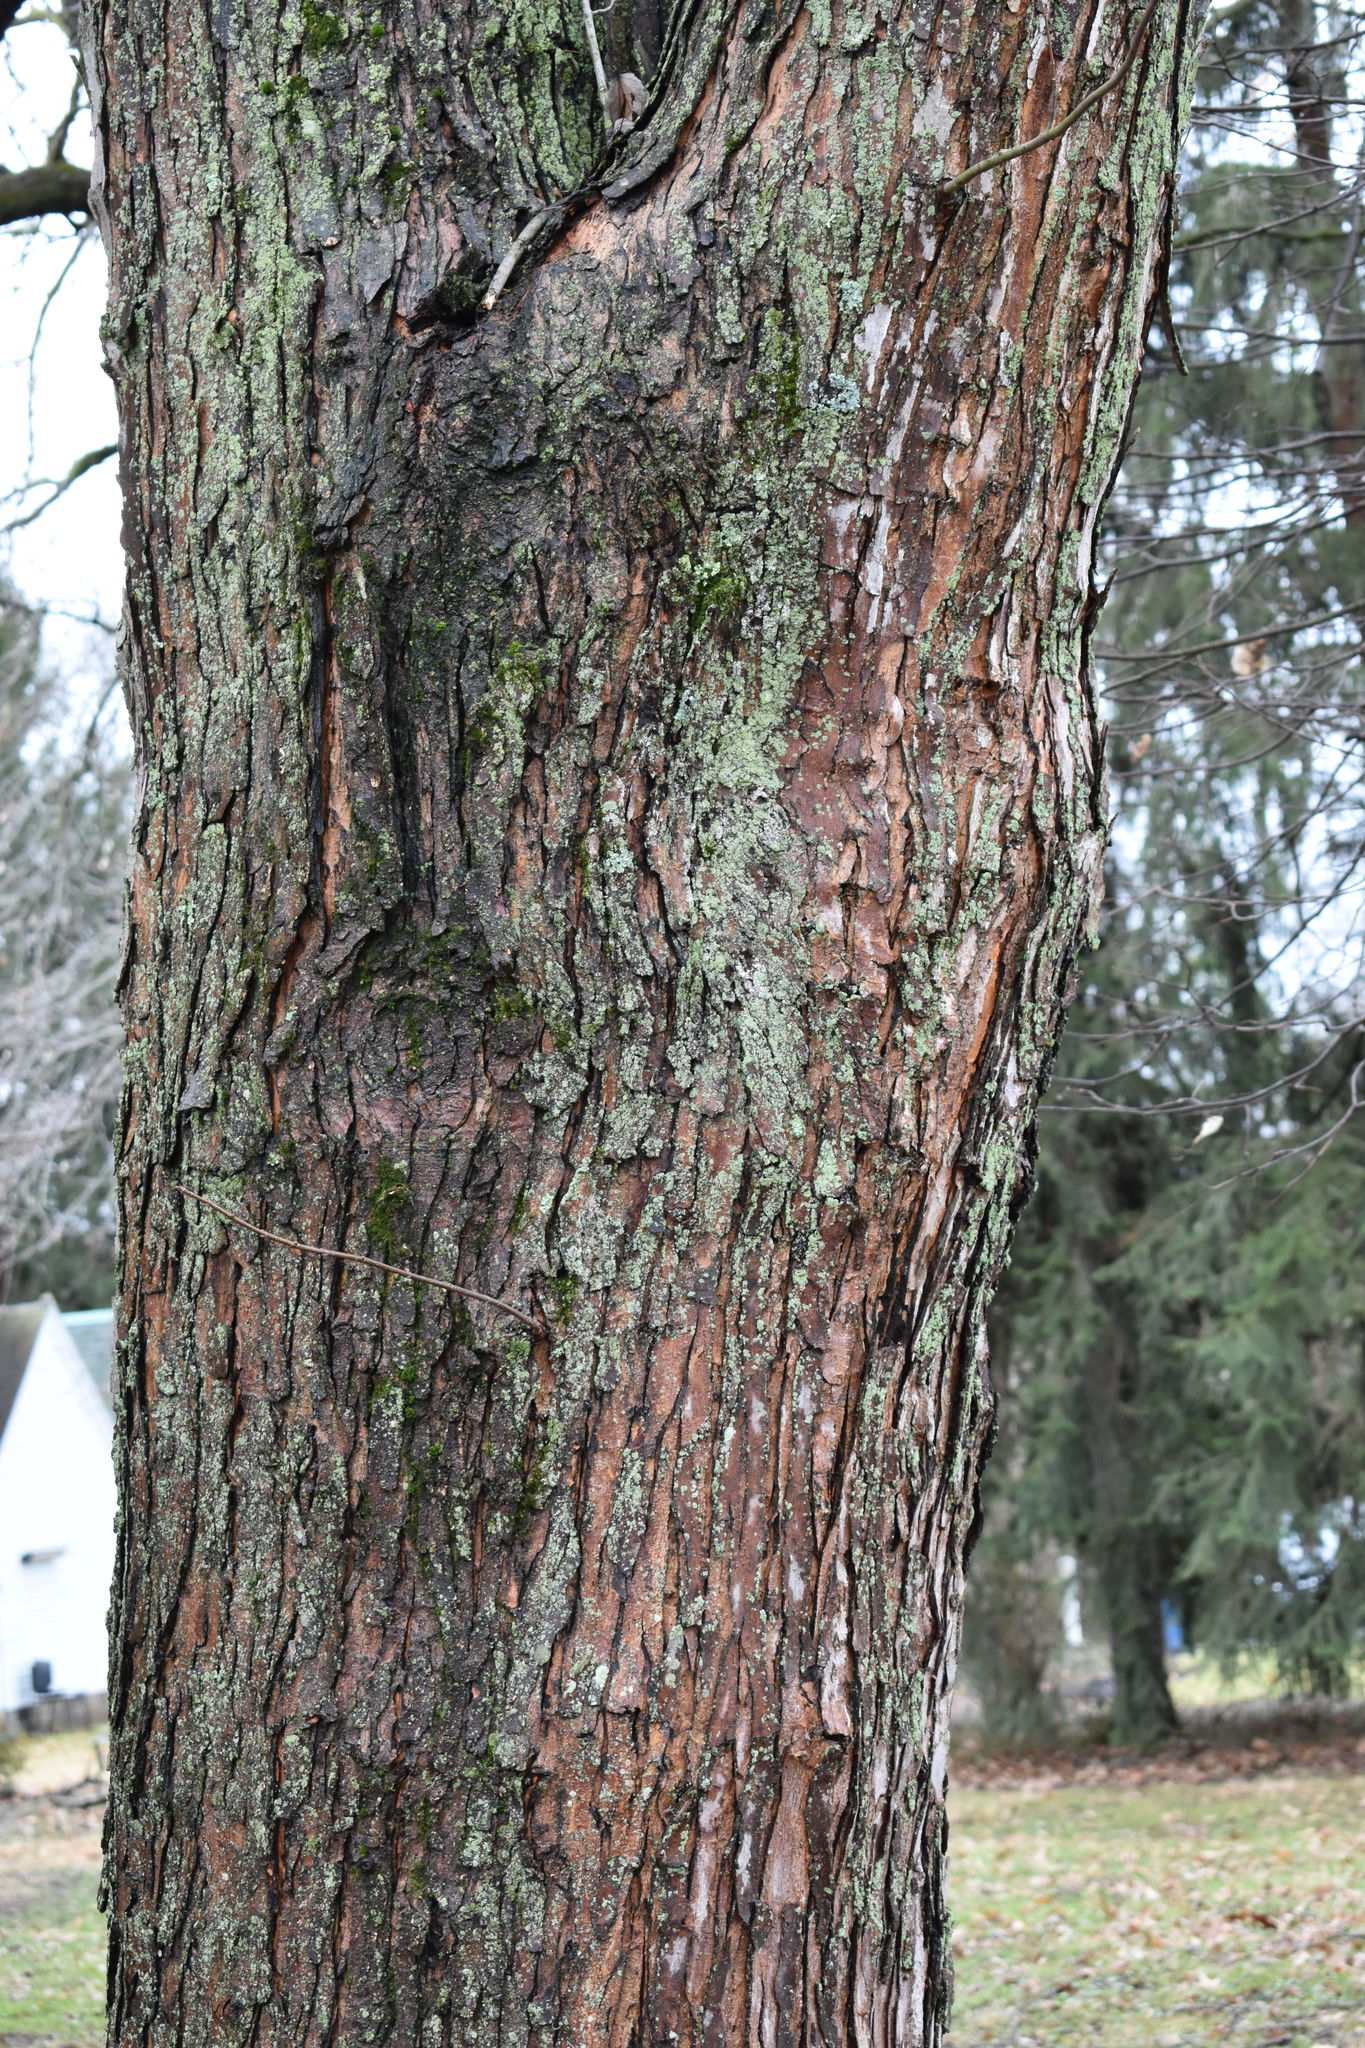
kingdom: Plantae
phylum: Tracheophyta
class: Magnoliopsida
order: Sapindales
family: Sapindaceae
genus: Acer
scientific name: Acer saccharinum
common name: Silver maple
